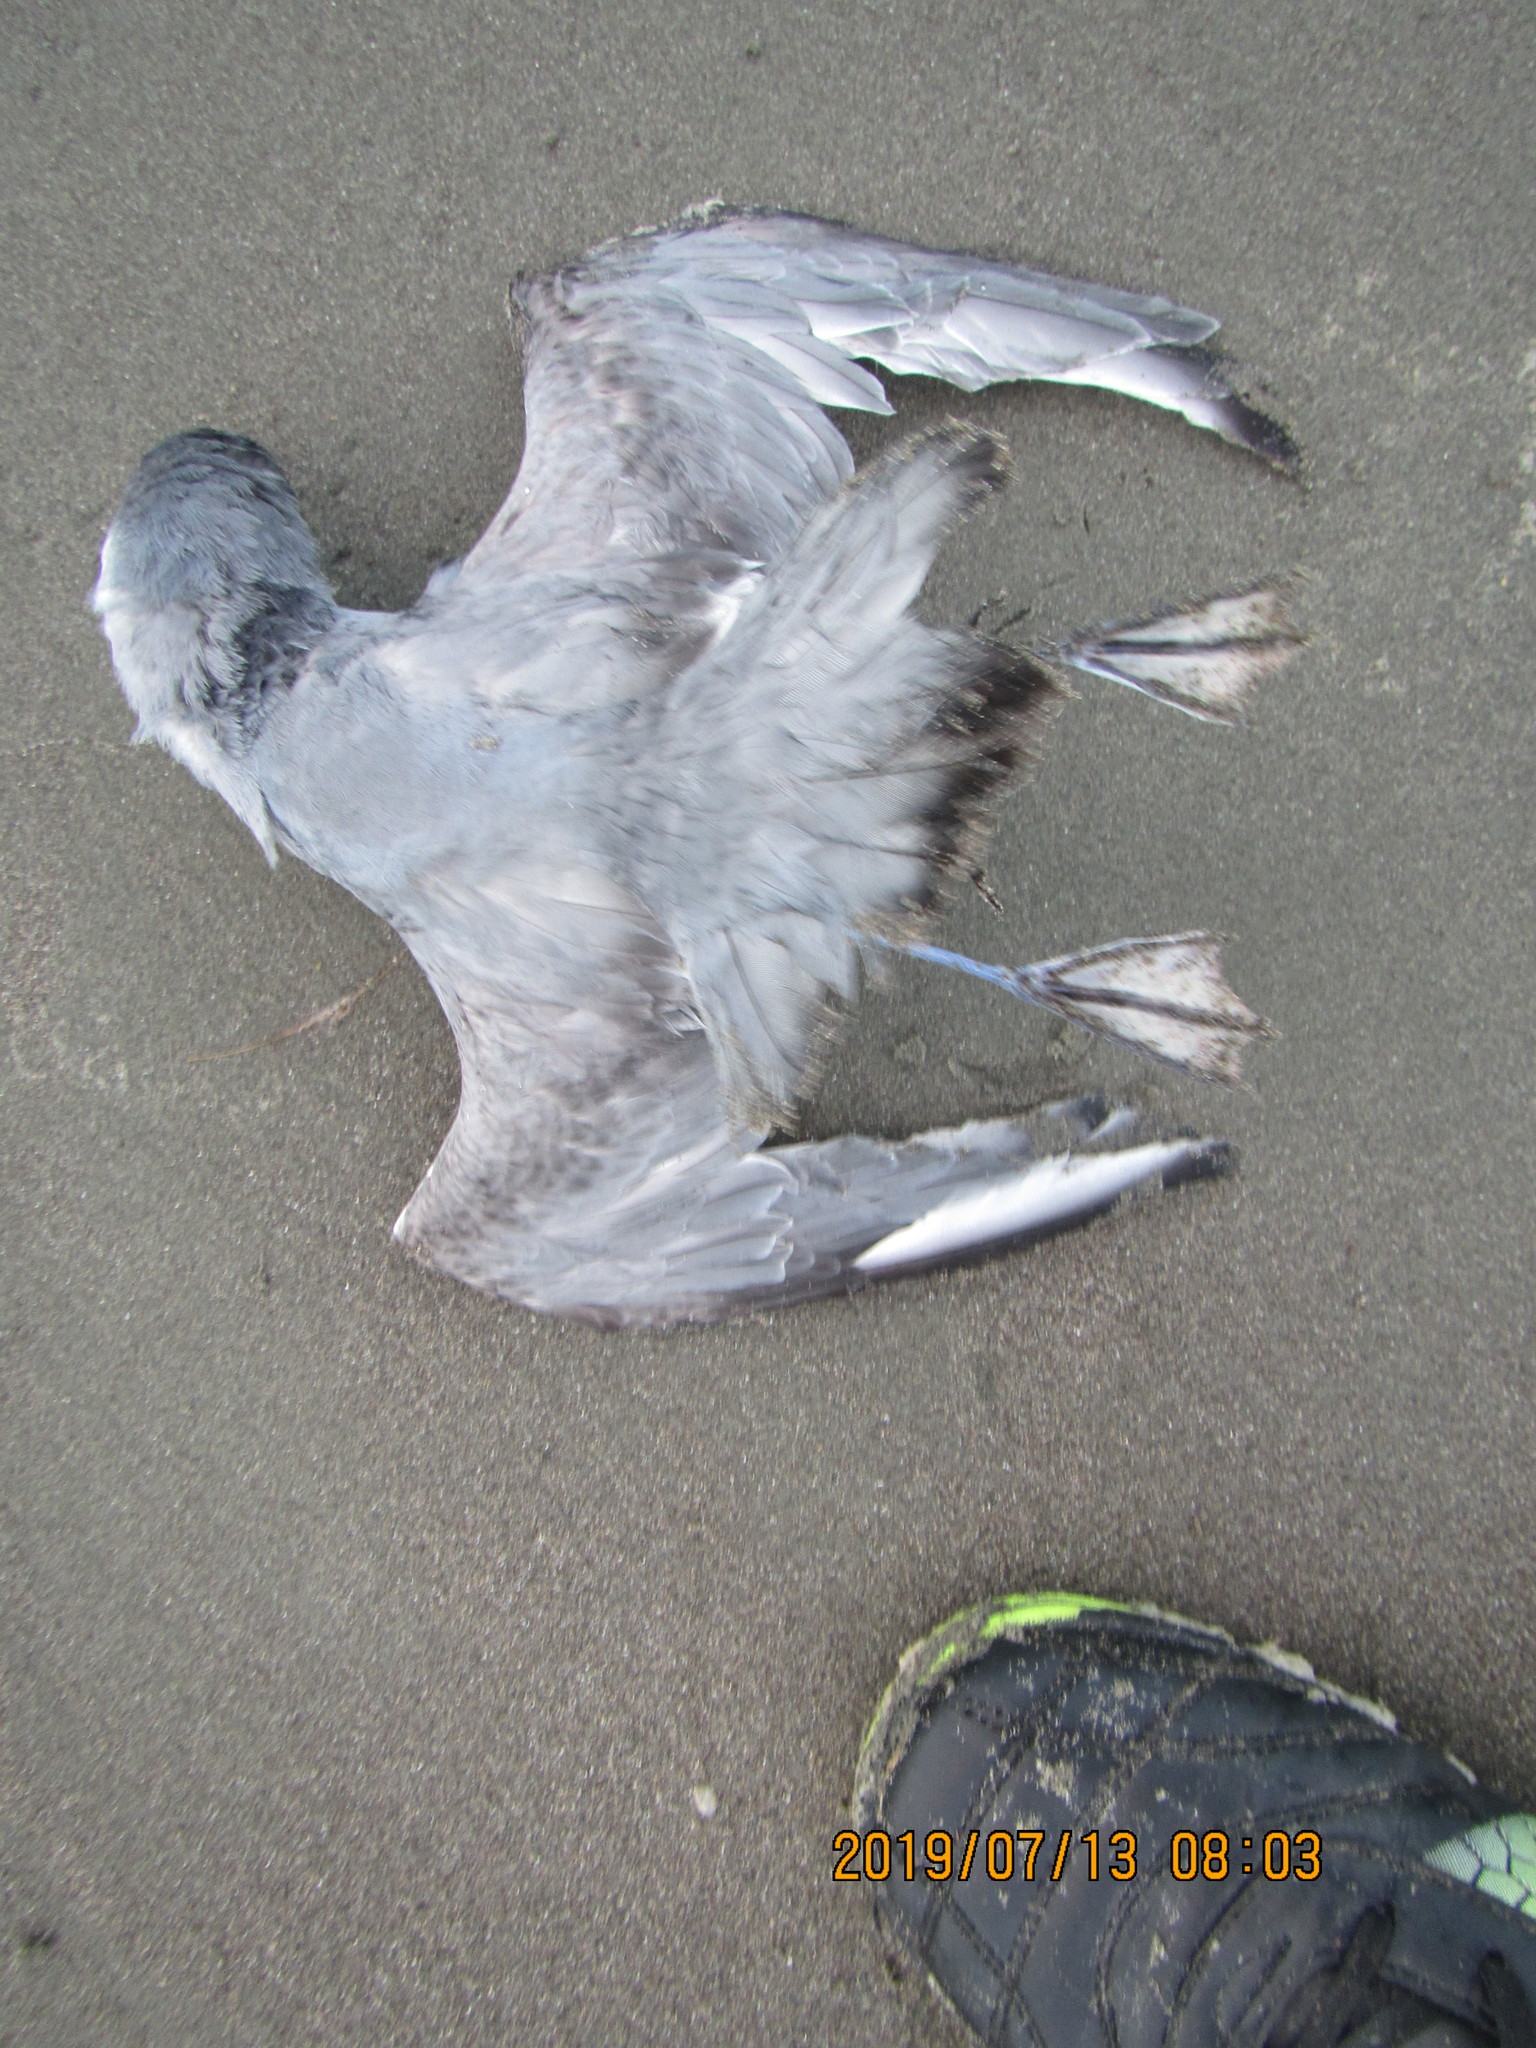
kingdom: Animalia
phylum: Chordata
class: Aves
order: Procellariiformes
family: Procellariidae
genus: Pachyptila
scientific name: Pachyptila belcheri
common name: Slender-billed prion
